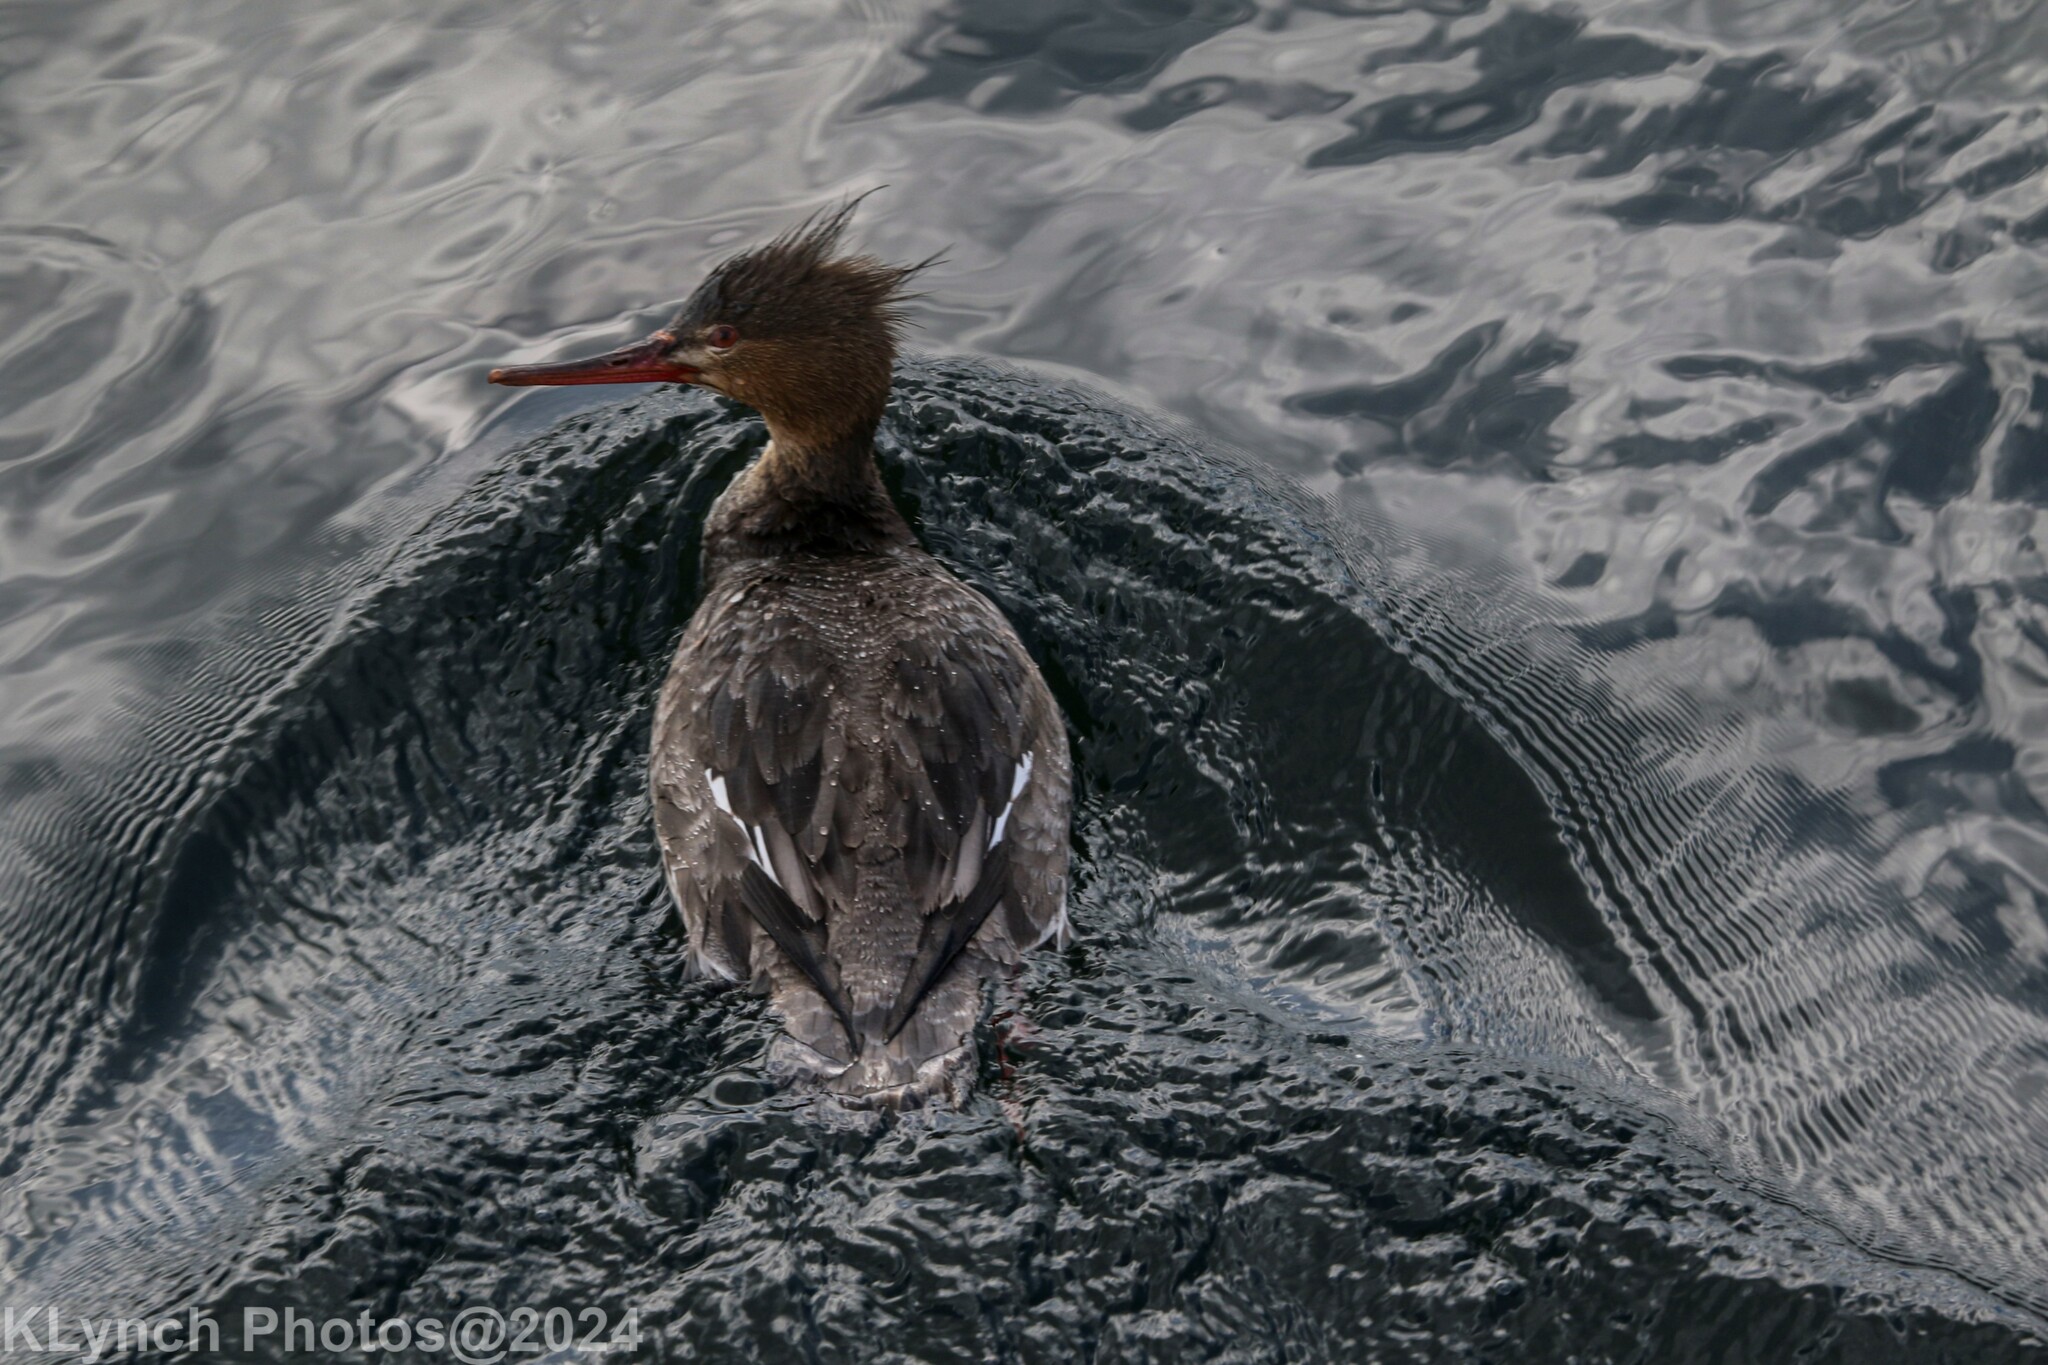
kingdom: Animalia
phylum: Chordata
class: Aves
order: Anseriformes
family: Anatidae
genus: Mergus
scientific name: Mergus serrator
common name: Red-breasted merganser
